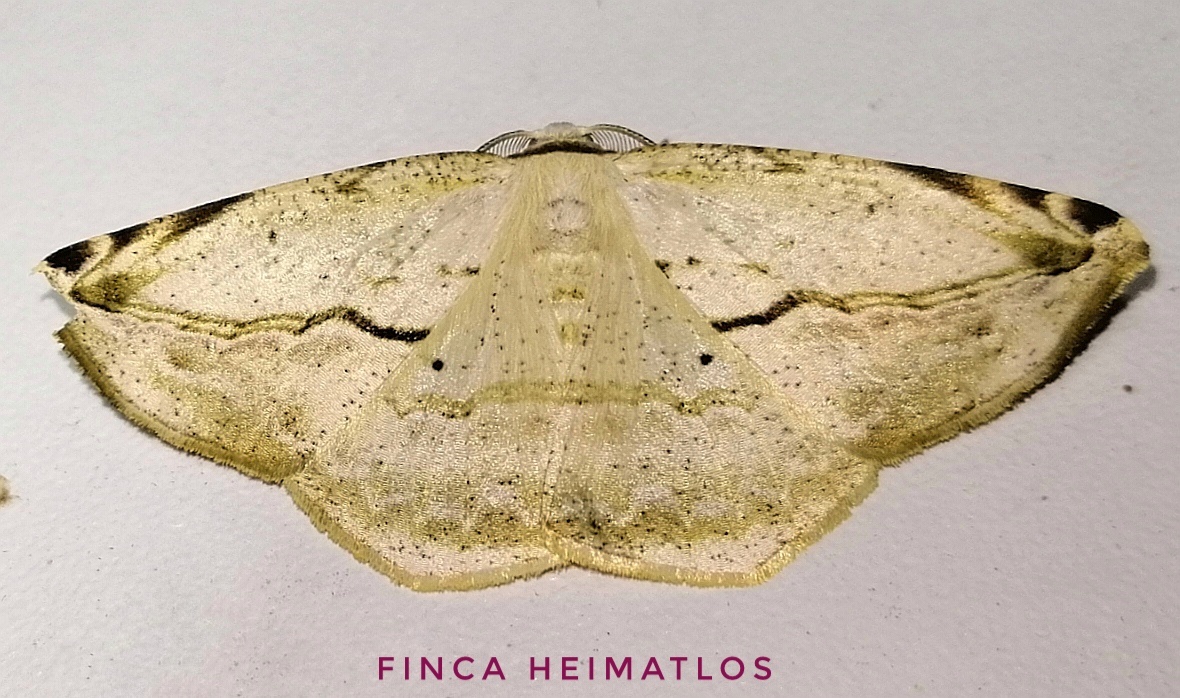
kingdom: Animalia
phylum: Arthropoda
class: Insecta
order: Lepidoptera
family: Geometridae
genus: Eusarca
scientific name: Eusarca nemora
